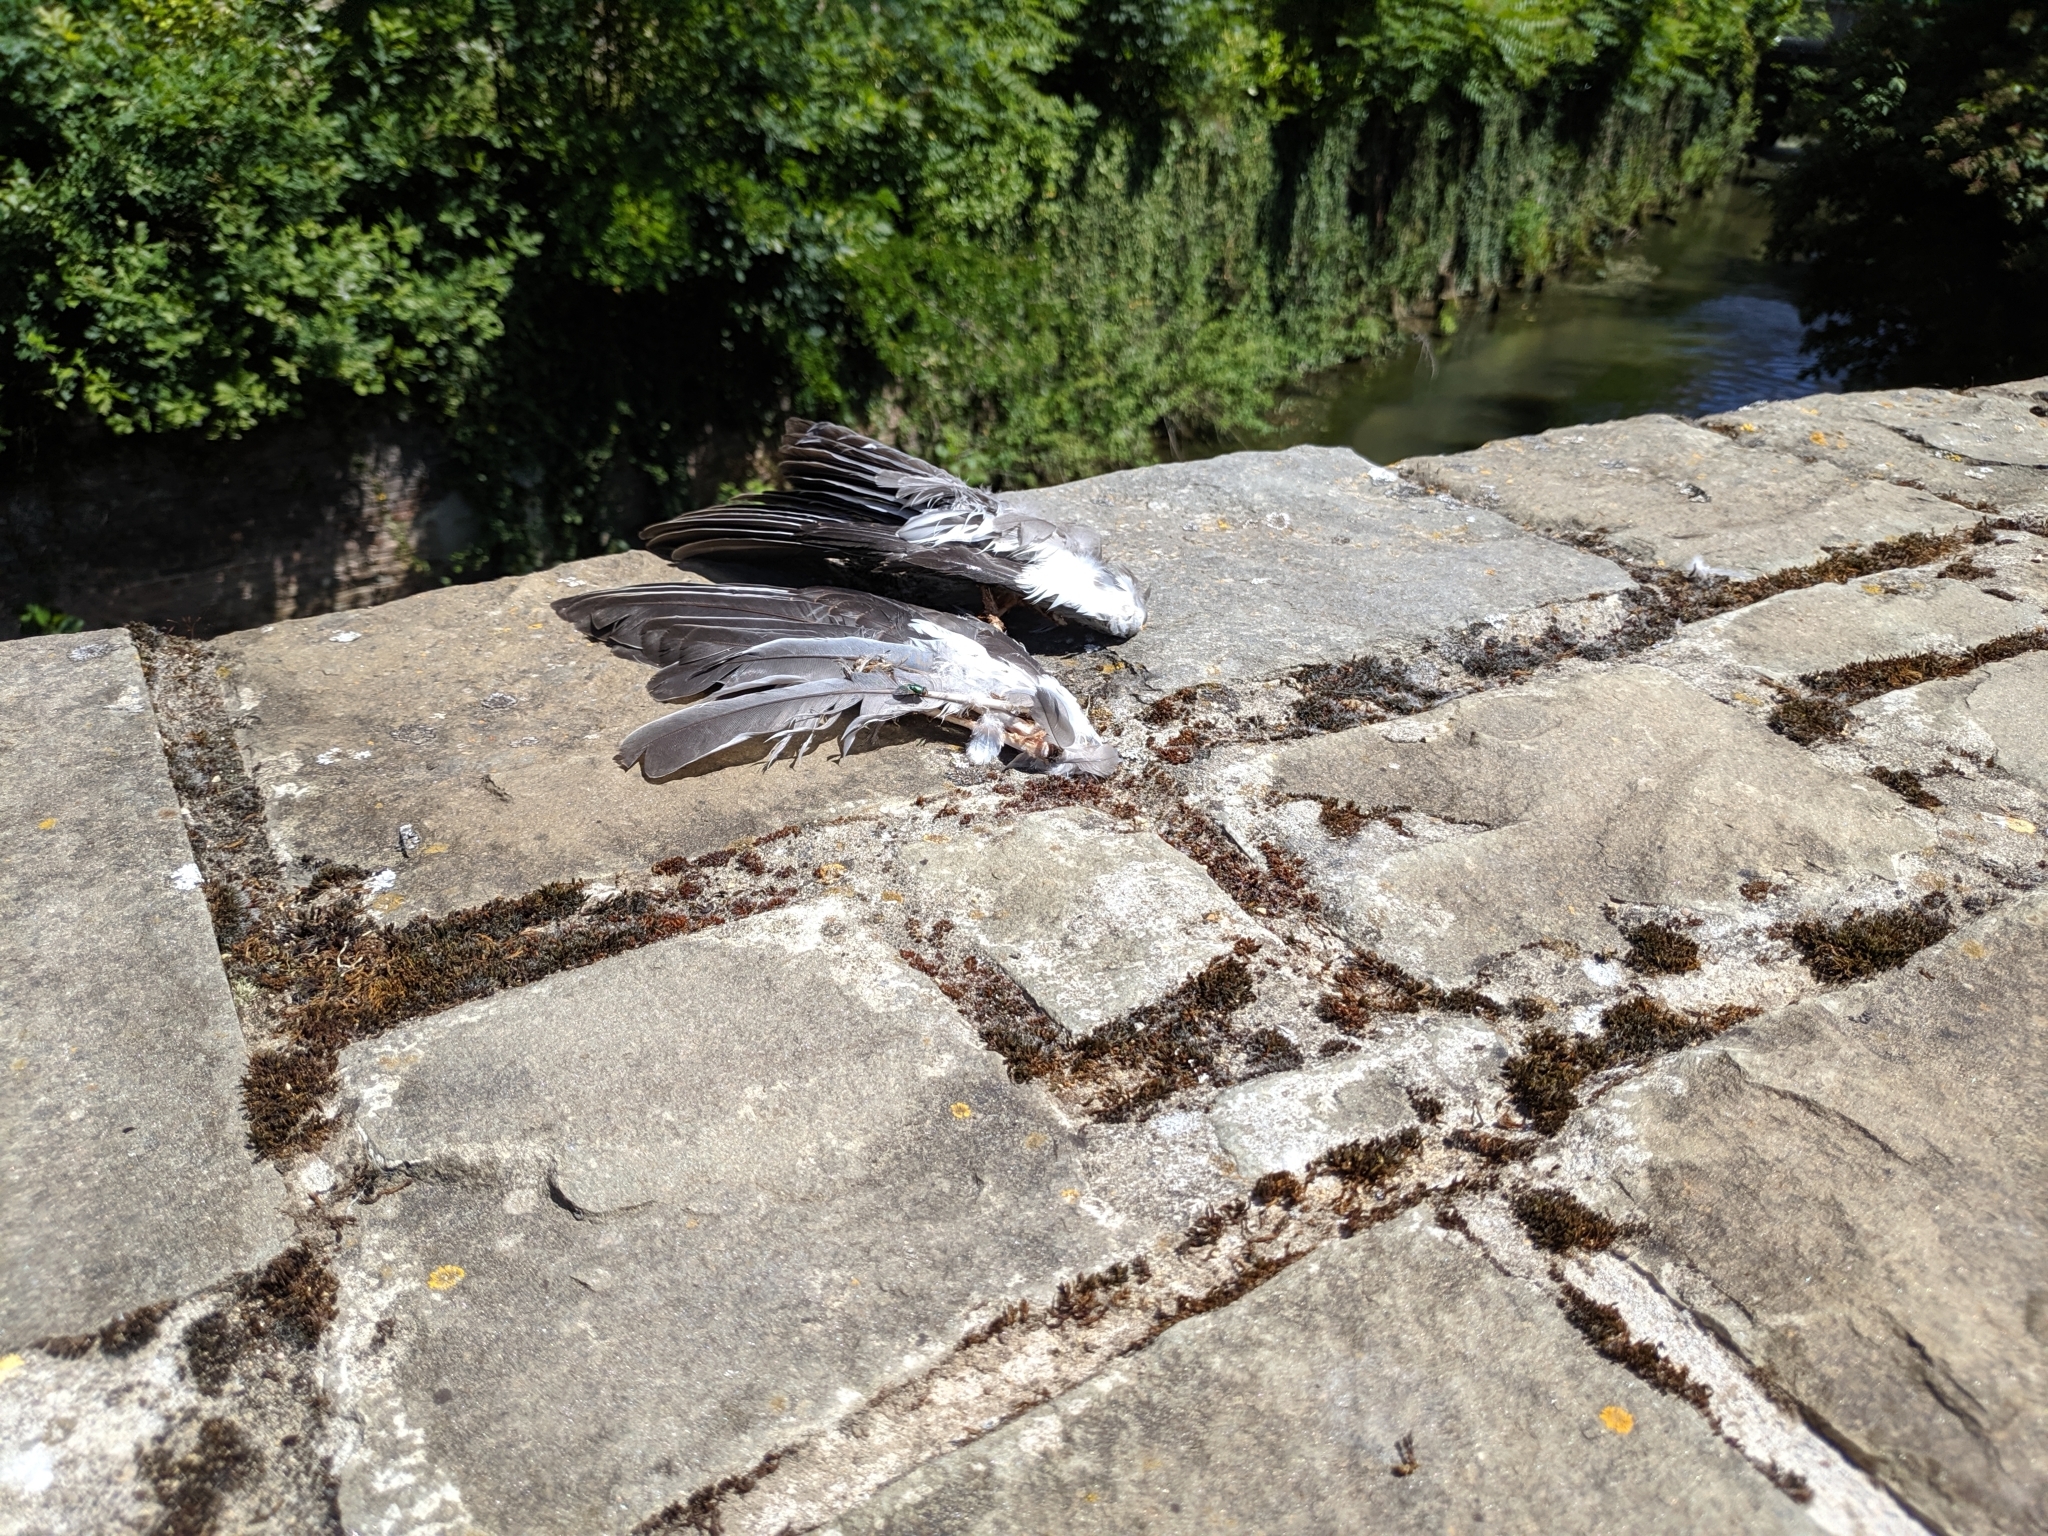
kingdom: Animalia
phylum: Chordata
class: Aves
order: Columbiformes
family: Columbidae
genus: Columba
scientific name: Columba palumbus
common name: Common wood pigeon
